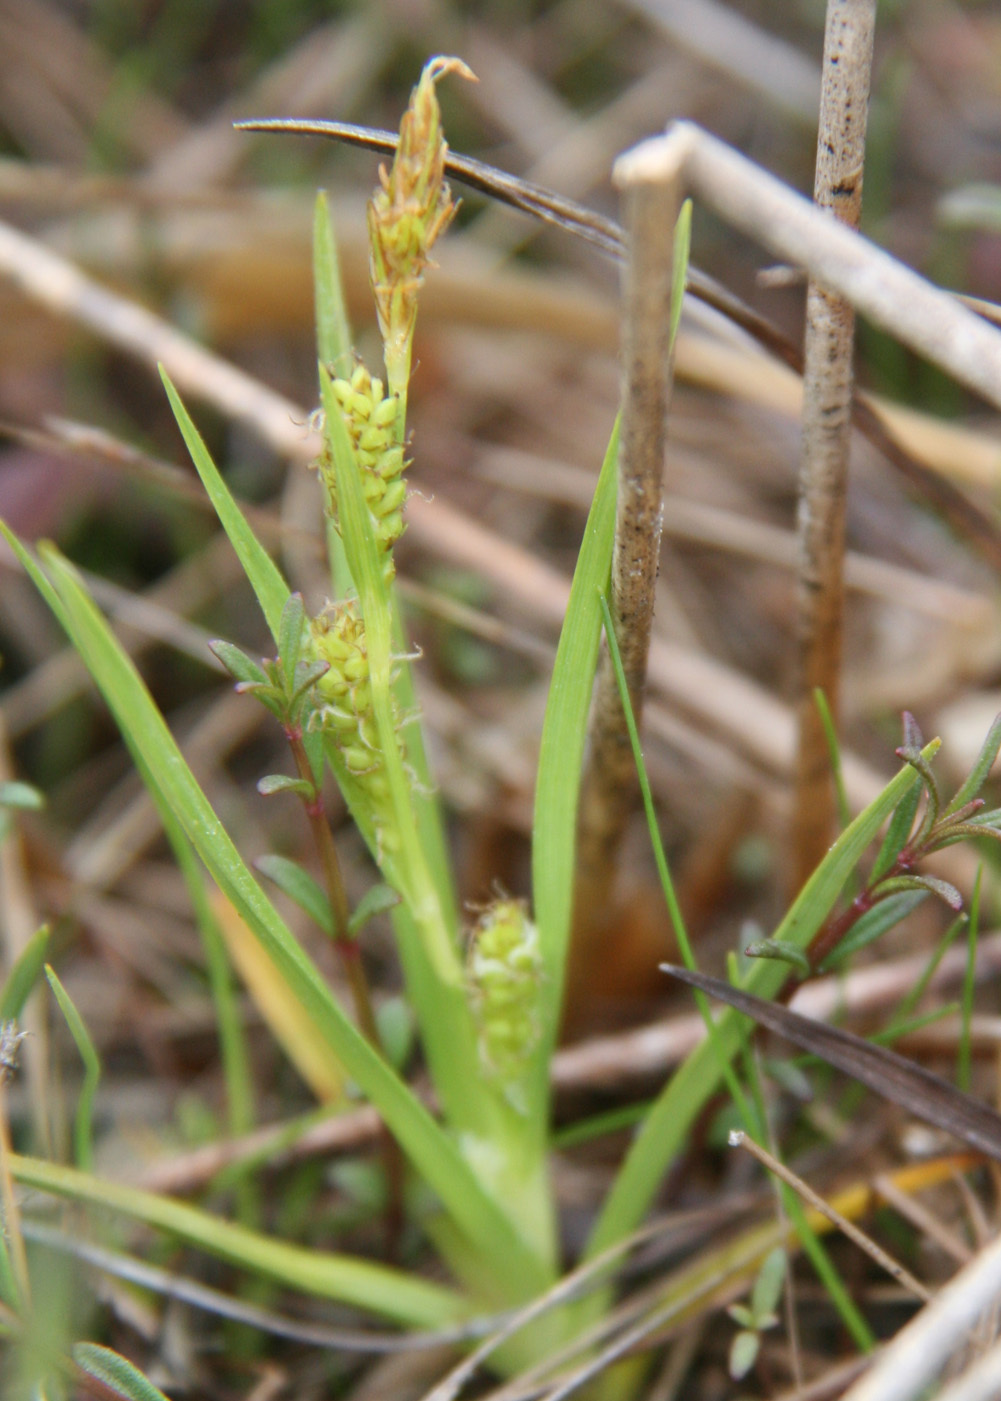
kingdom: Plantae
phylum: Tracheophyta
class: Liliopsida
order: Poales
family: Cyperaceae
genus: Carex
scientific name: Carex crawei
